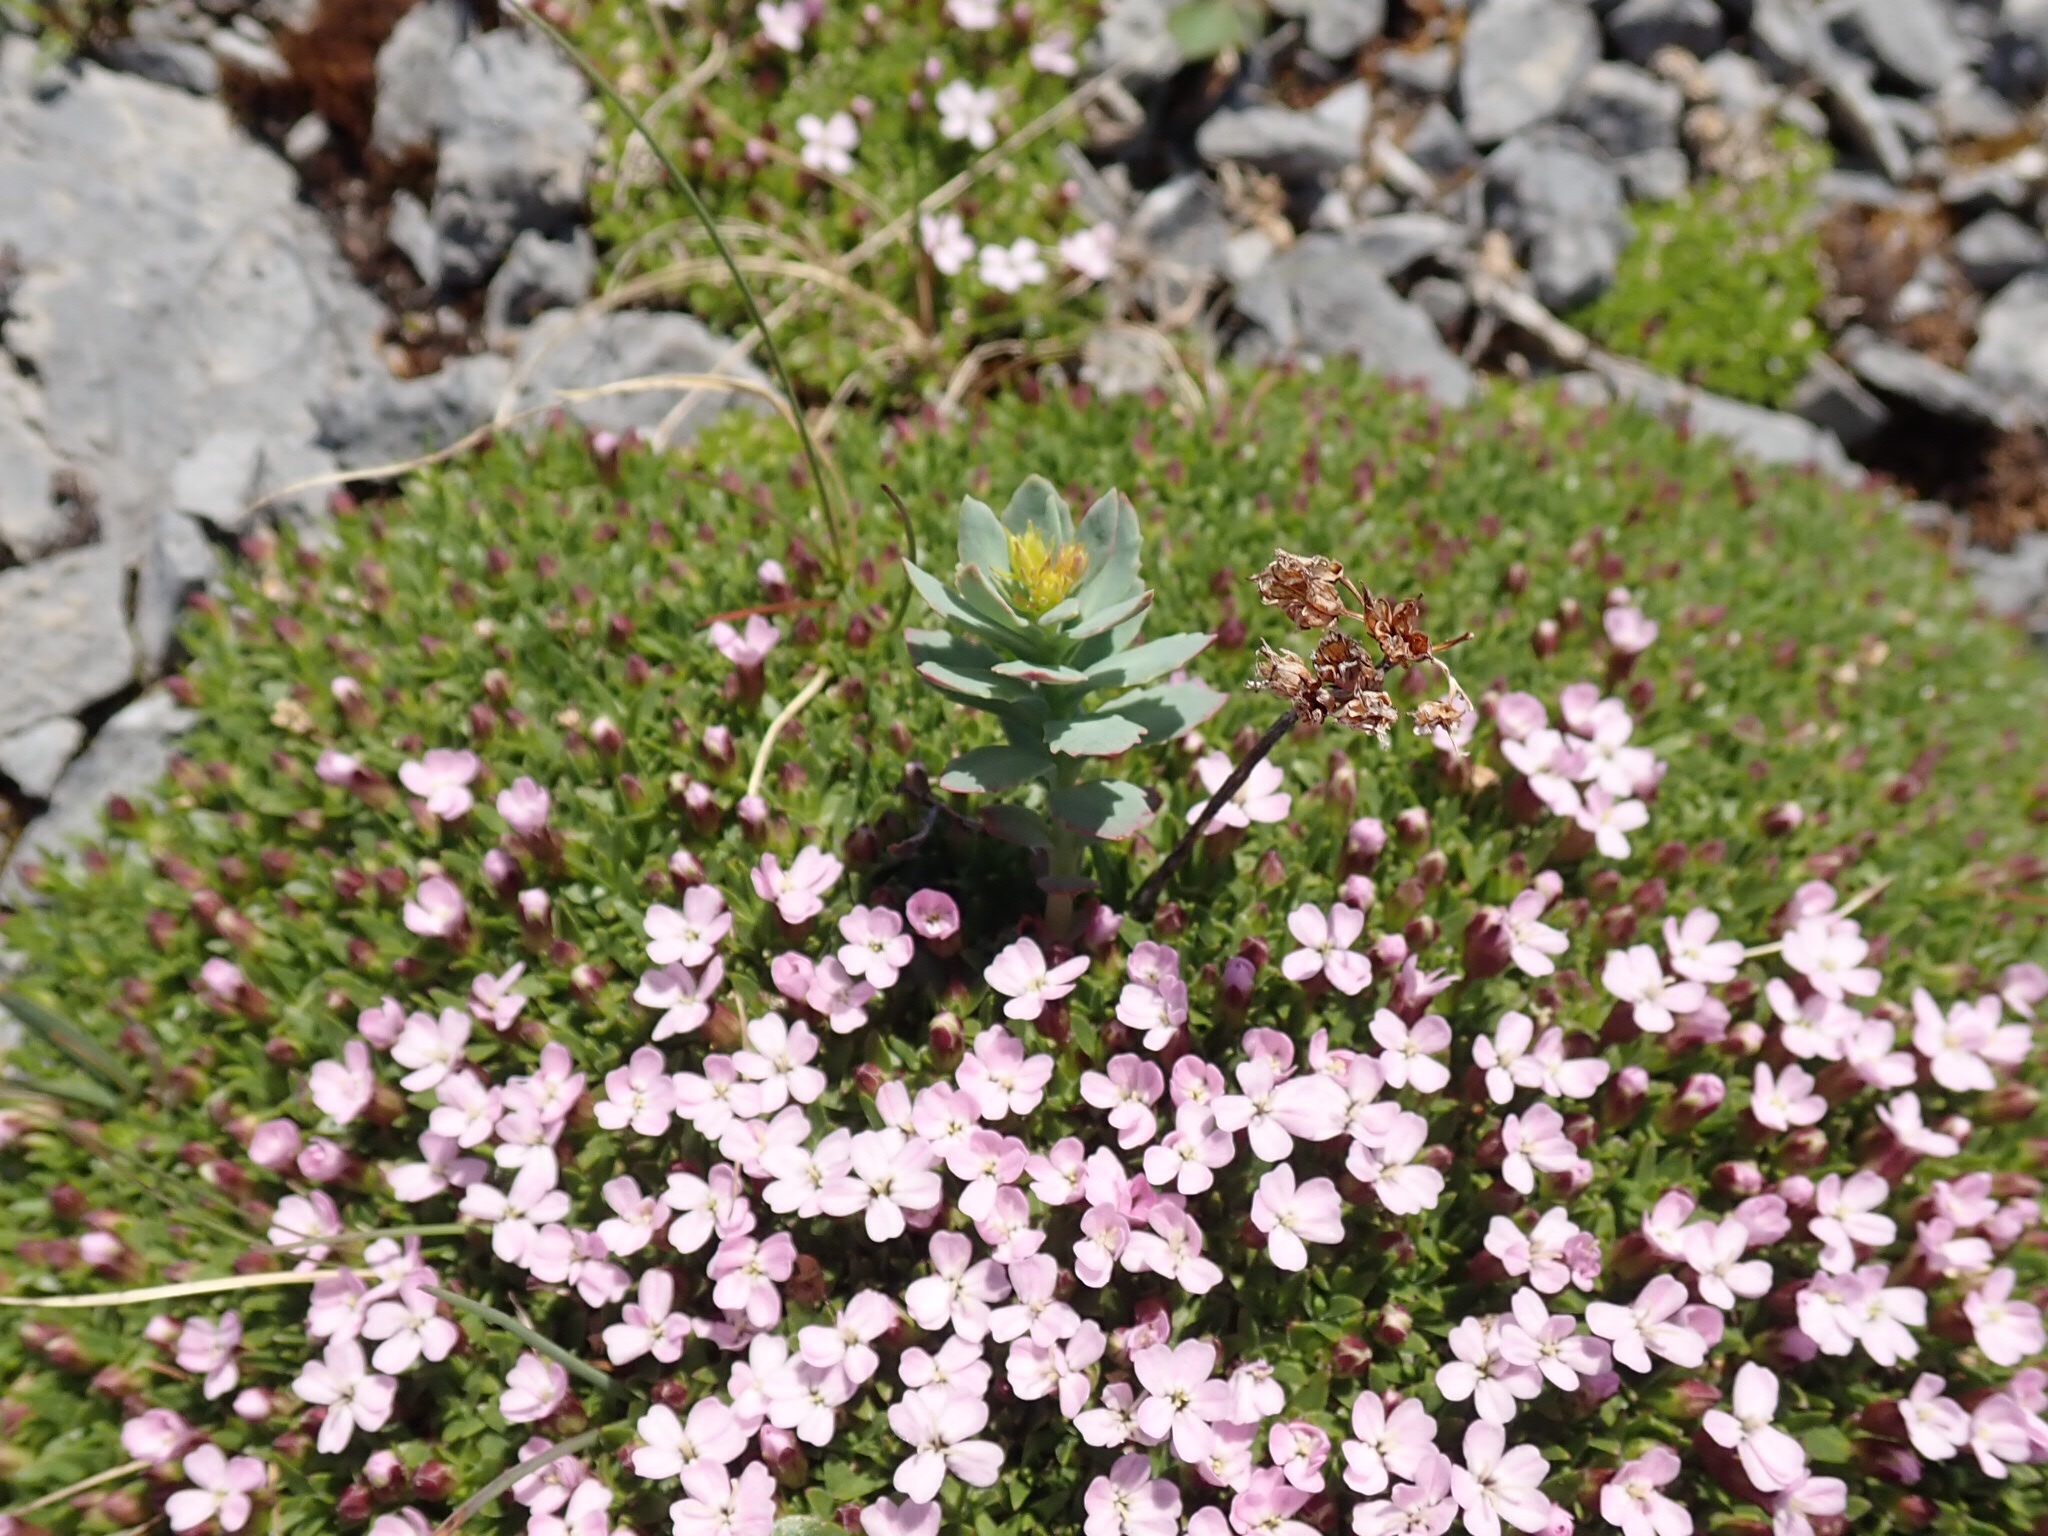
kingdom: Plantae
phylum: Tracheophyta
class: Magnoliopsida
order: Saxifragales
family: Crassulaceae
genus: Rhodiola
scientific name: Rhodiola rosea
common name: Roseroot
